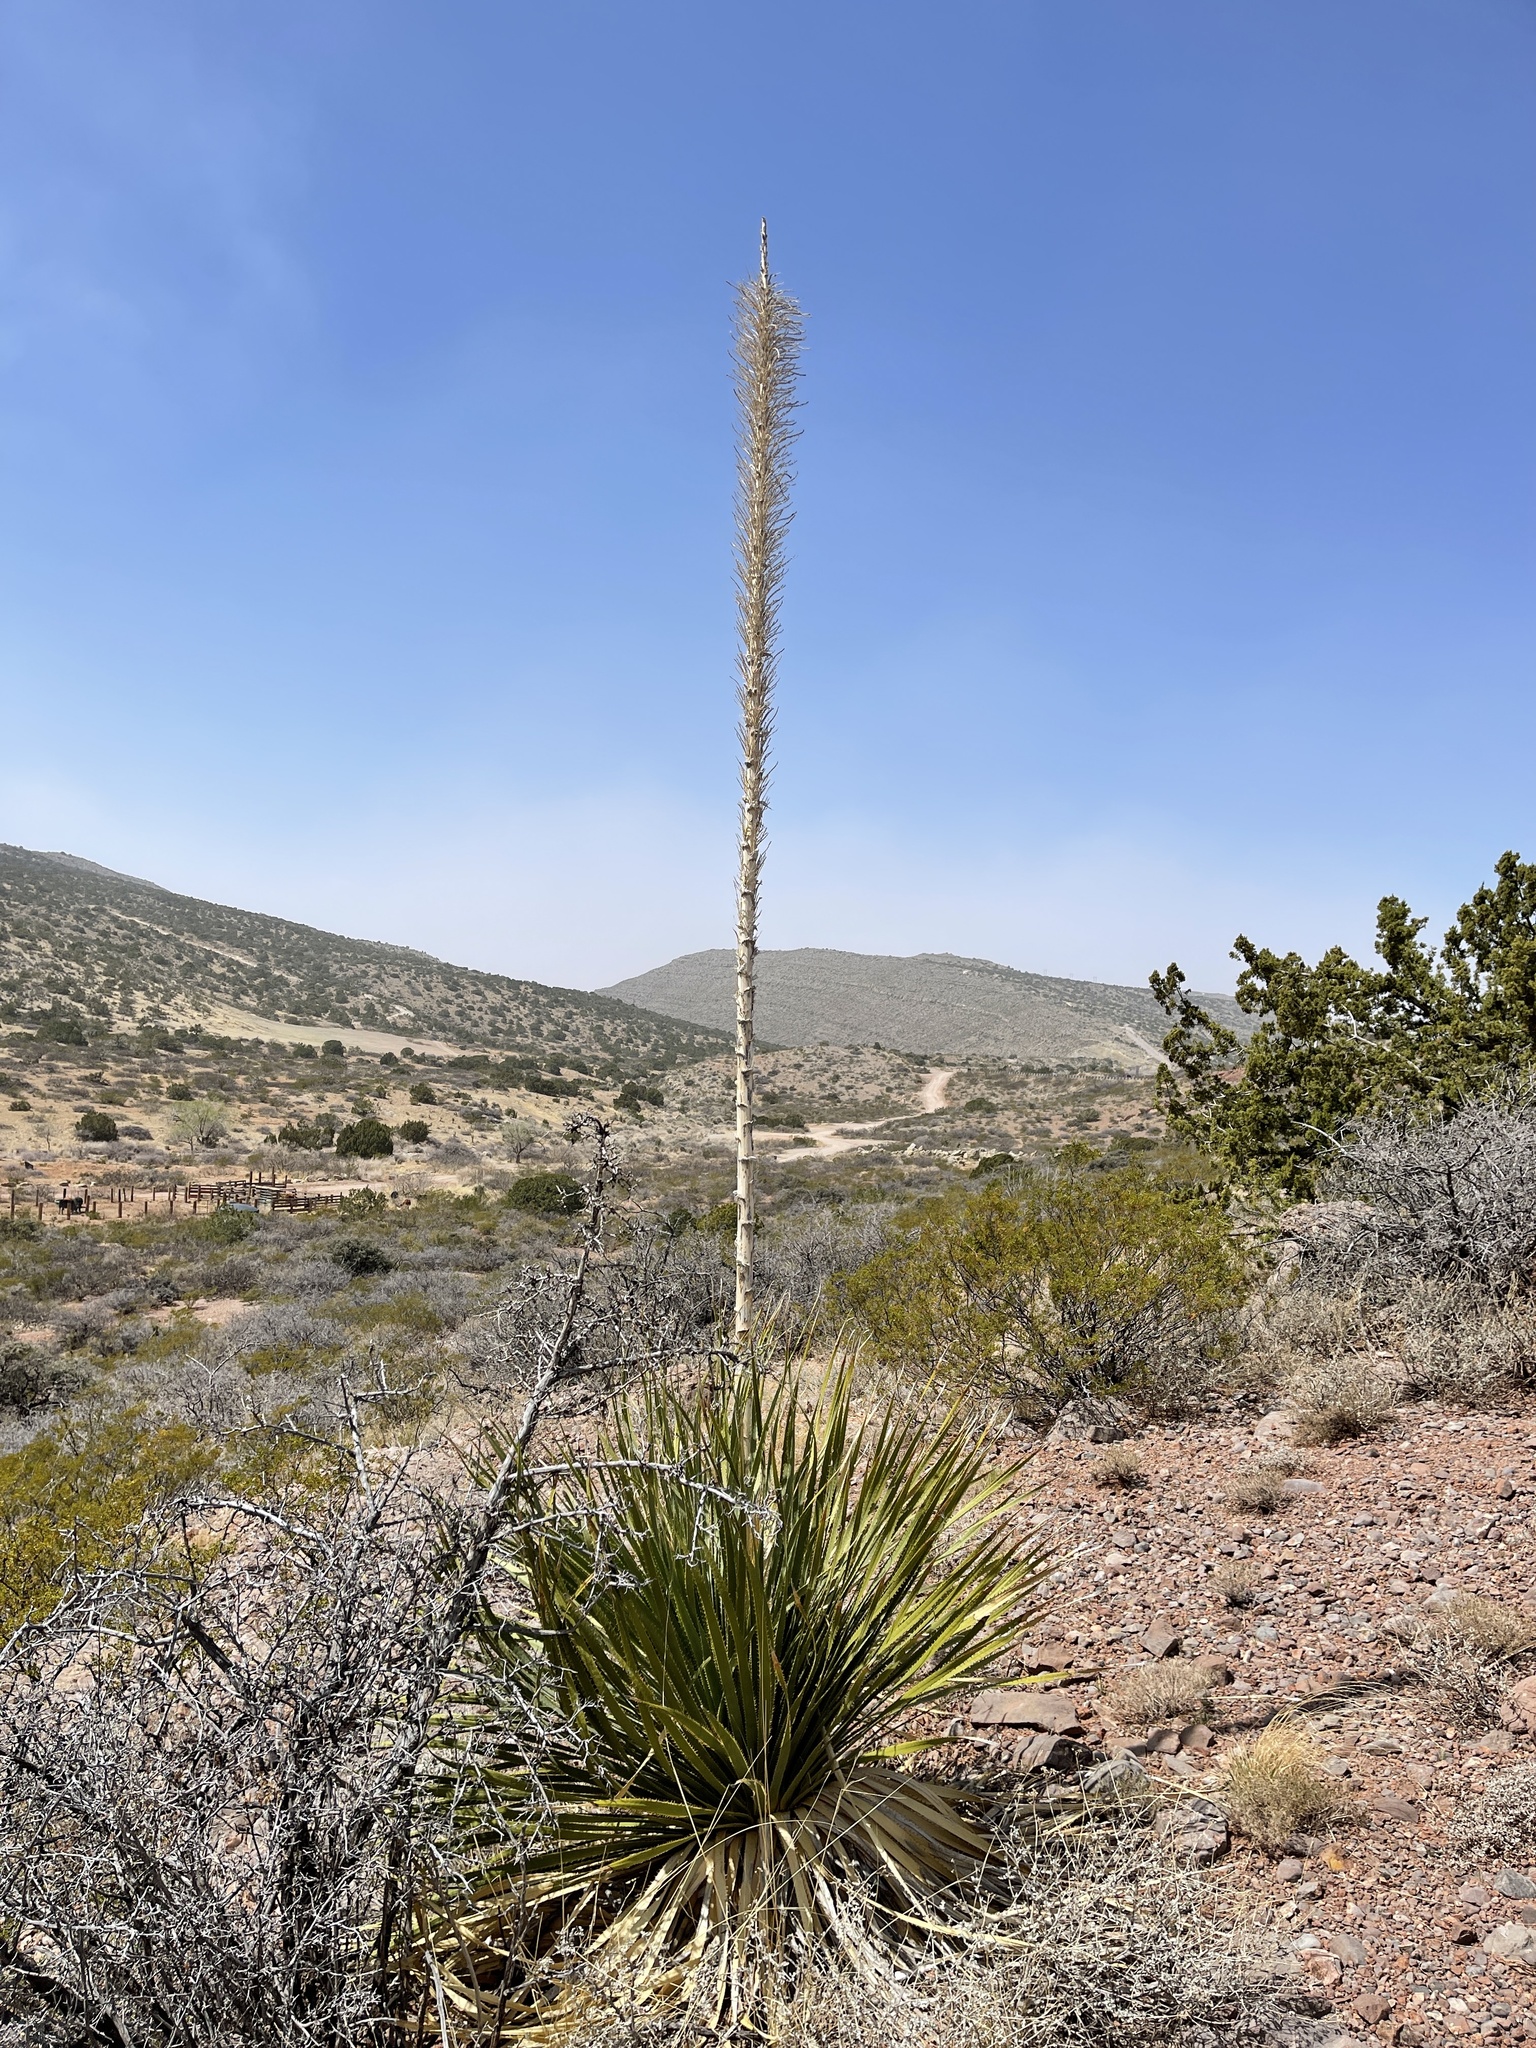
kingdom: Plantae
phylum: Tracheophyta
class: Liliopsida
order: Asparagales
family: Asparagaceae
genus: Dasylirion
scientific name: Dasylirion wheeleri
